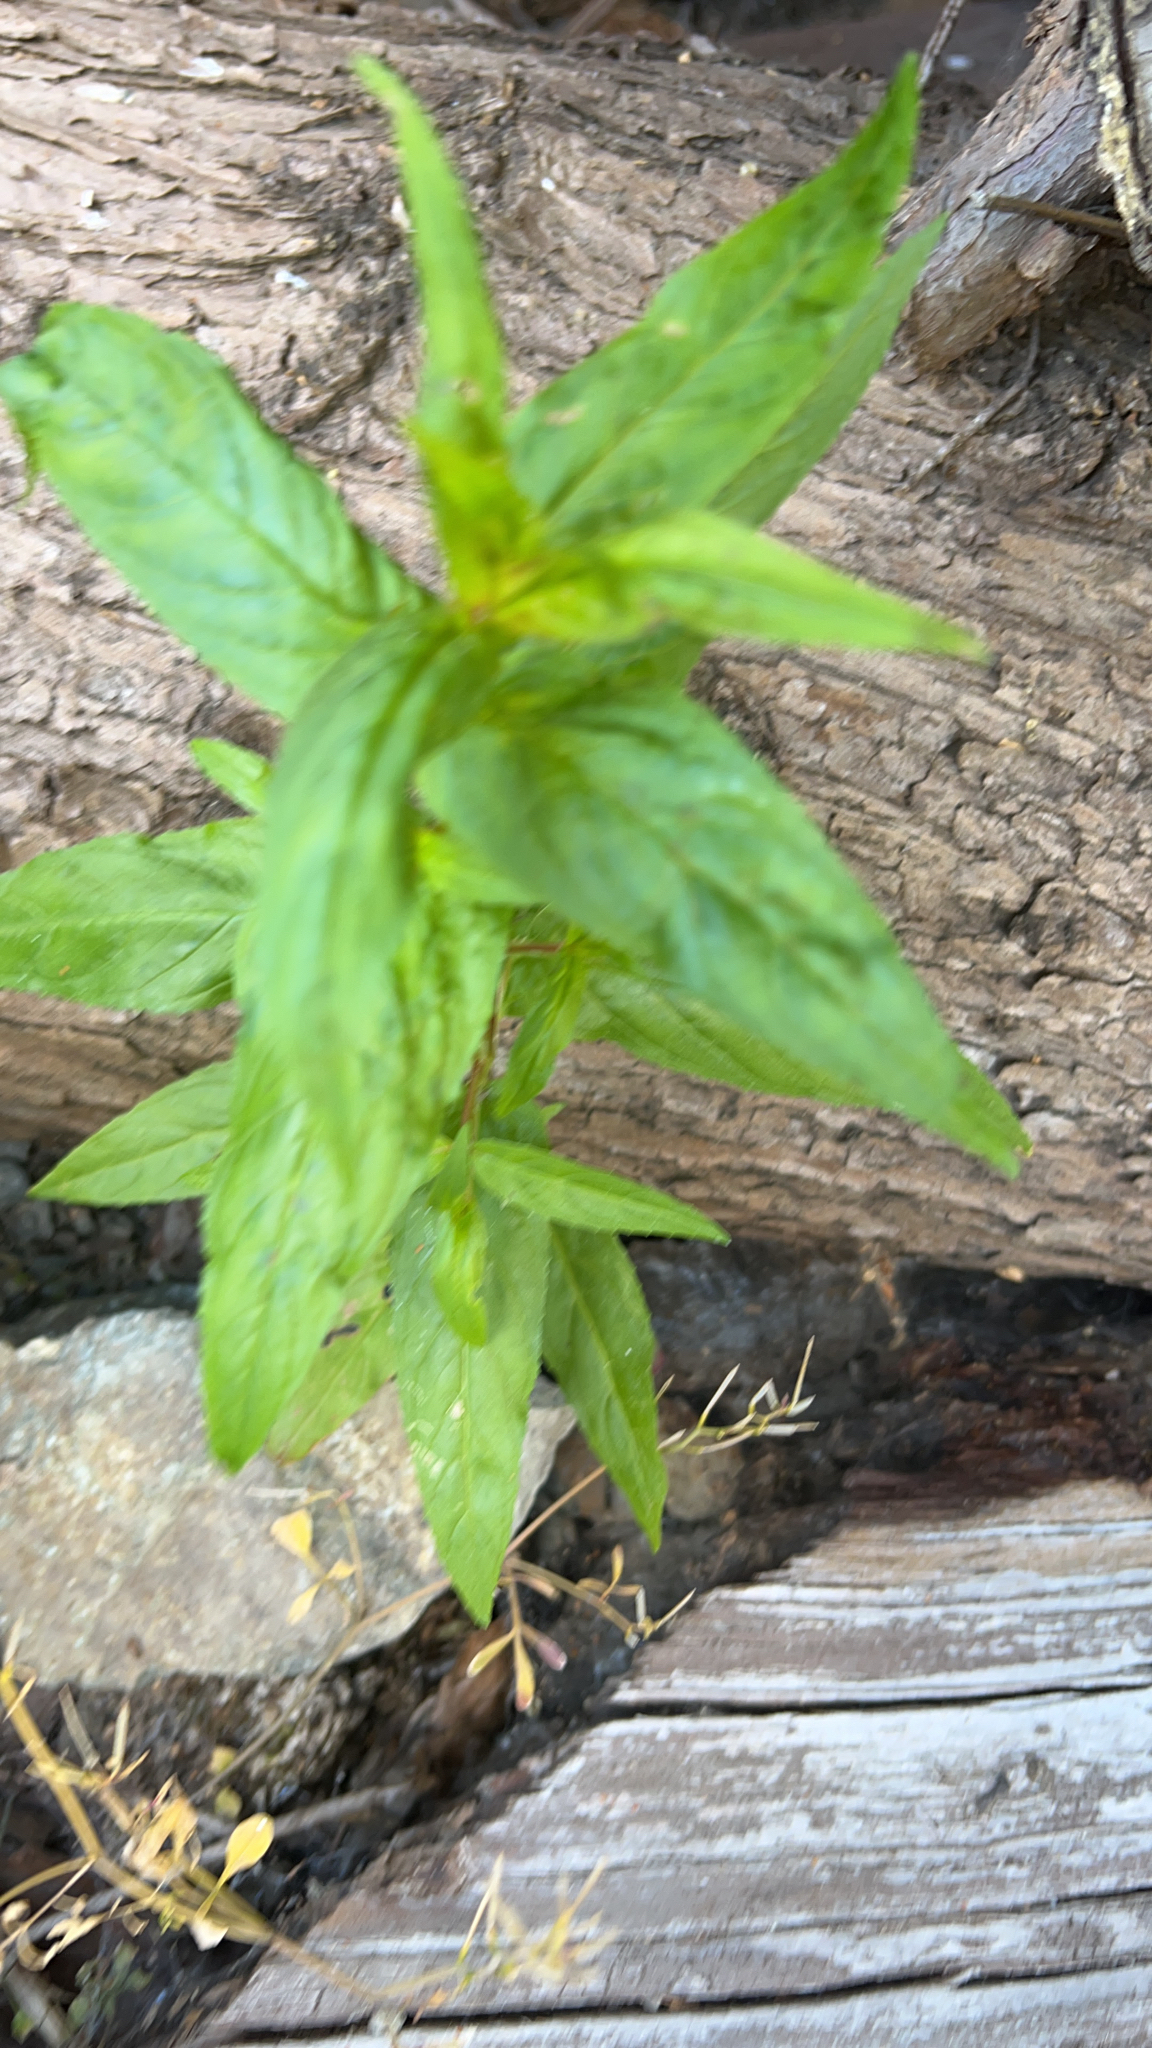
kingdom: Plantae
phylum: Tracheophyta
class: Magnoliopsida
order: Myrtales
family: Onagraceae
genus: Epilobium
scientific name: Epilobium ciliatum
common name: American willowherb
